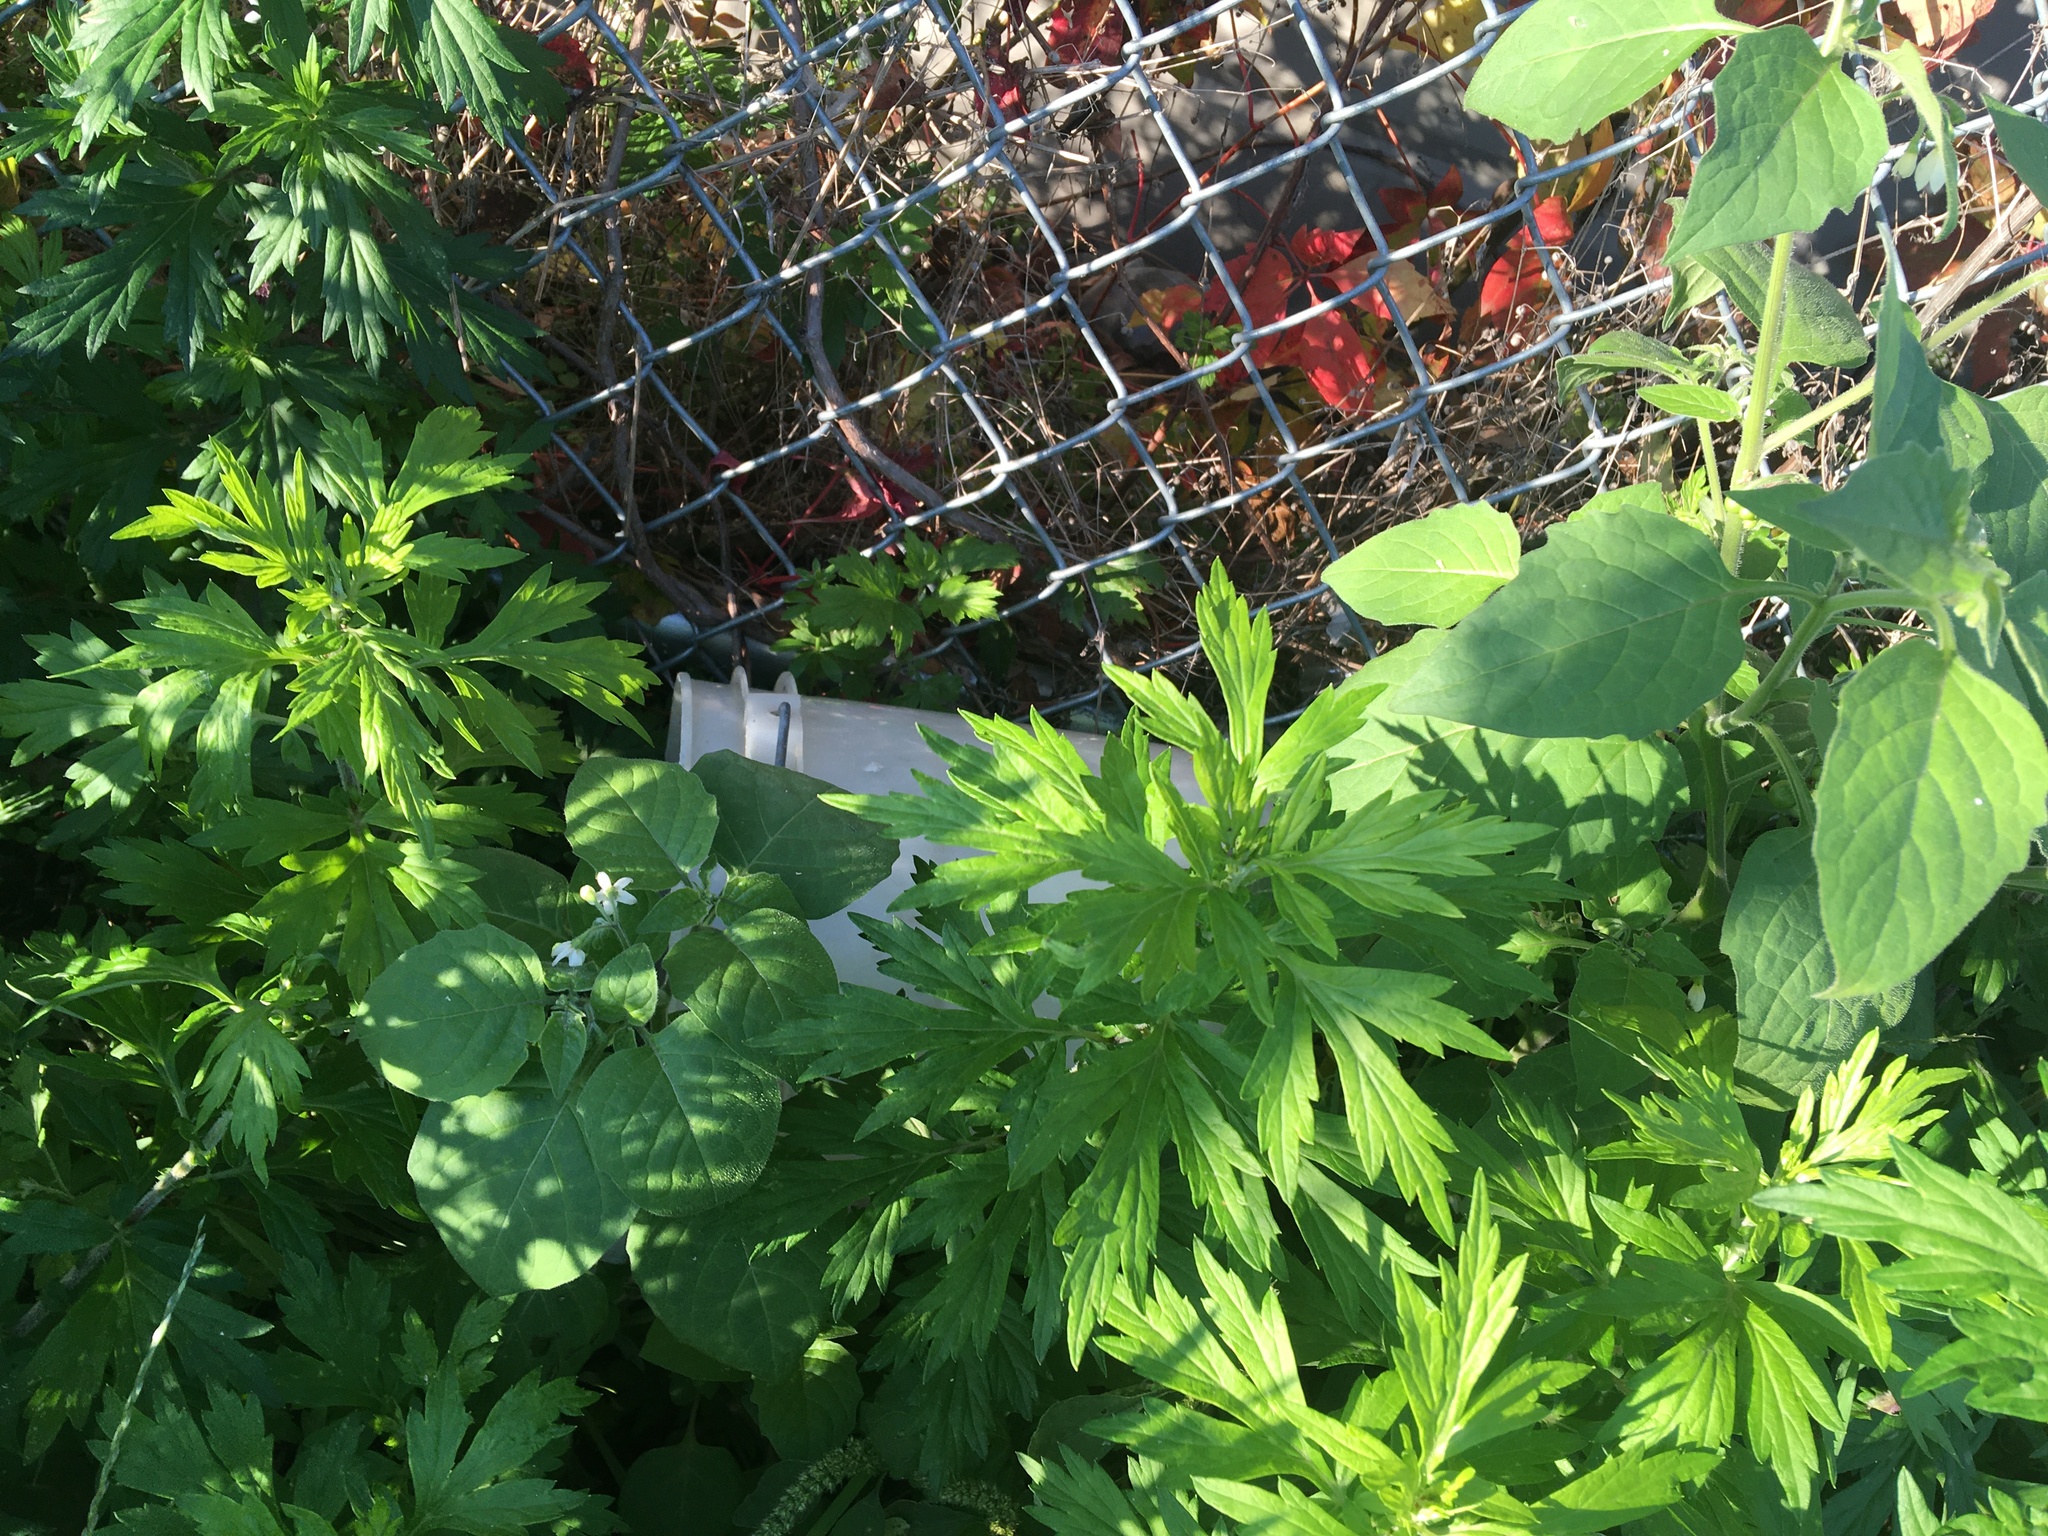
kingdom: Plantae
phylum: Tracheophyta
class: Magnoliopsida
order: Asterales
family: Asteraceae
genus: Artemisia
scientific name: Artemisia vulgaris
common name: Mugwort
